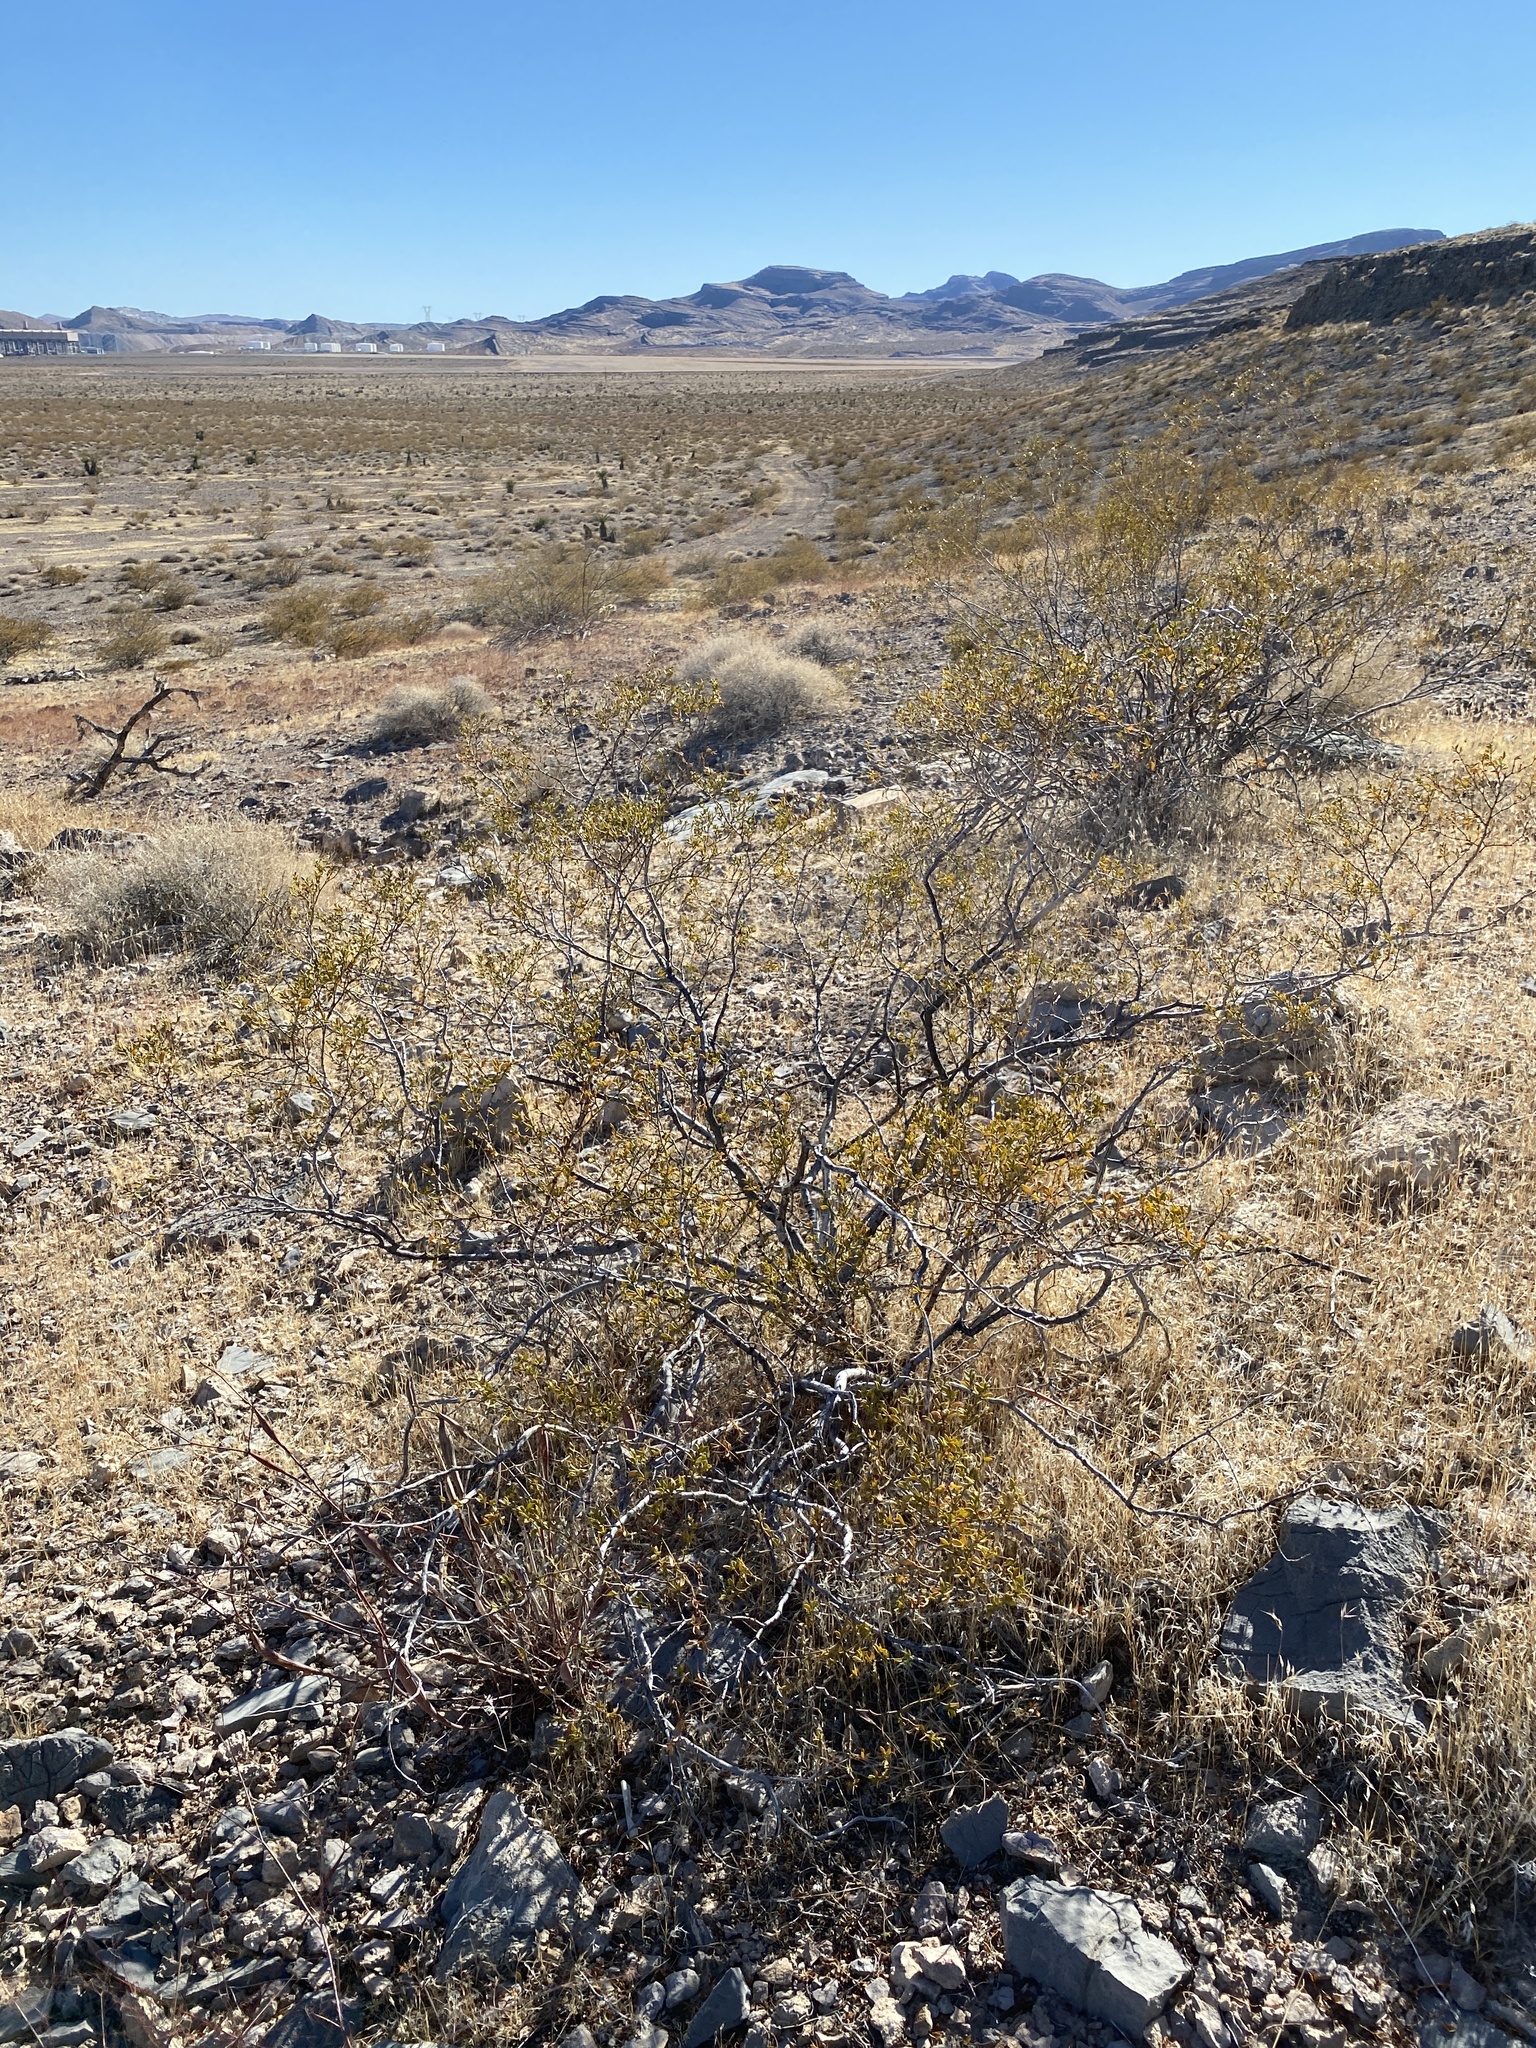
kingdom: Plantae
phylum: Tracheophyta
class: Magnoliopsida
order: Zygophyllales
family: Zygophyllaceae
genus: Larrea
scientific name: Larrea tridentata
